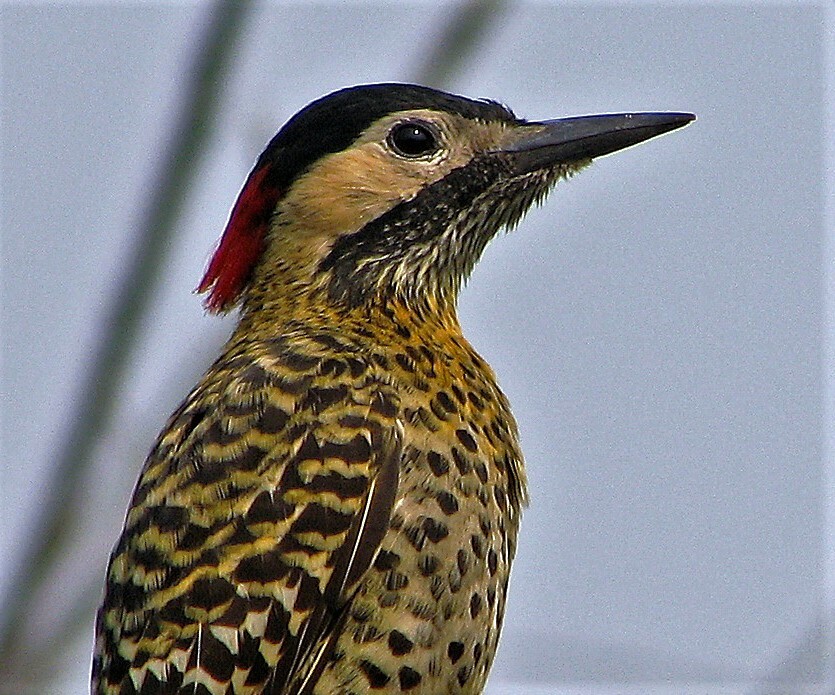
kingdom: Animalia
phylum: Chordata
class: Aves
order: Piciformes
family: Picidae
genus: Colaptes
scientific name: Colaptes melanochloros
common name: Green-barred woodpecker
